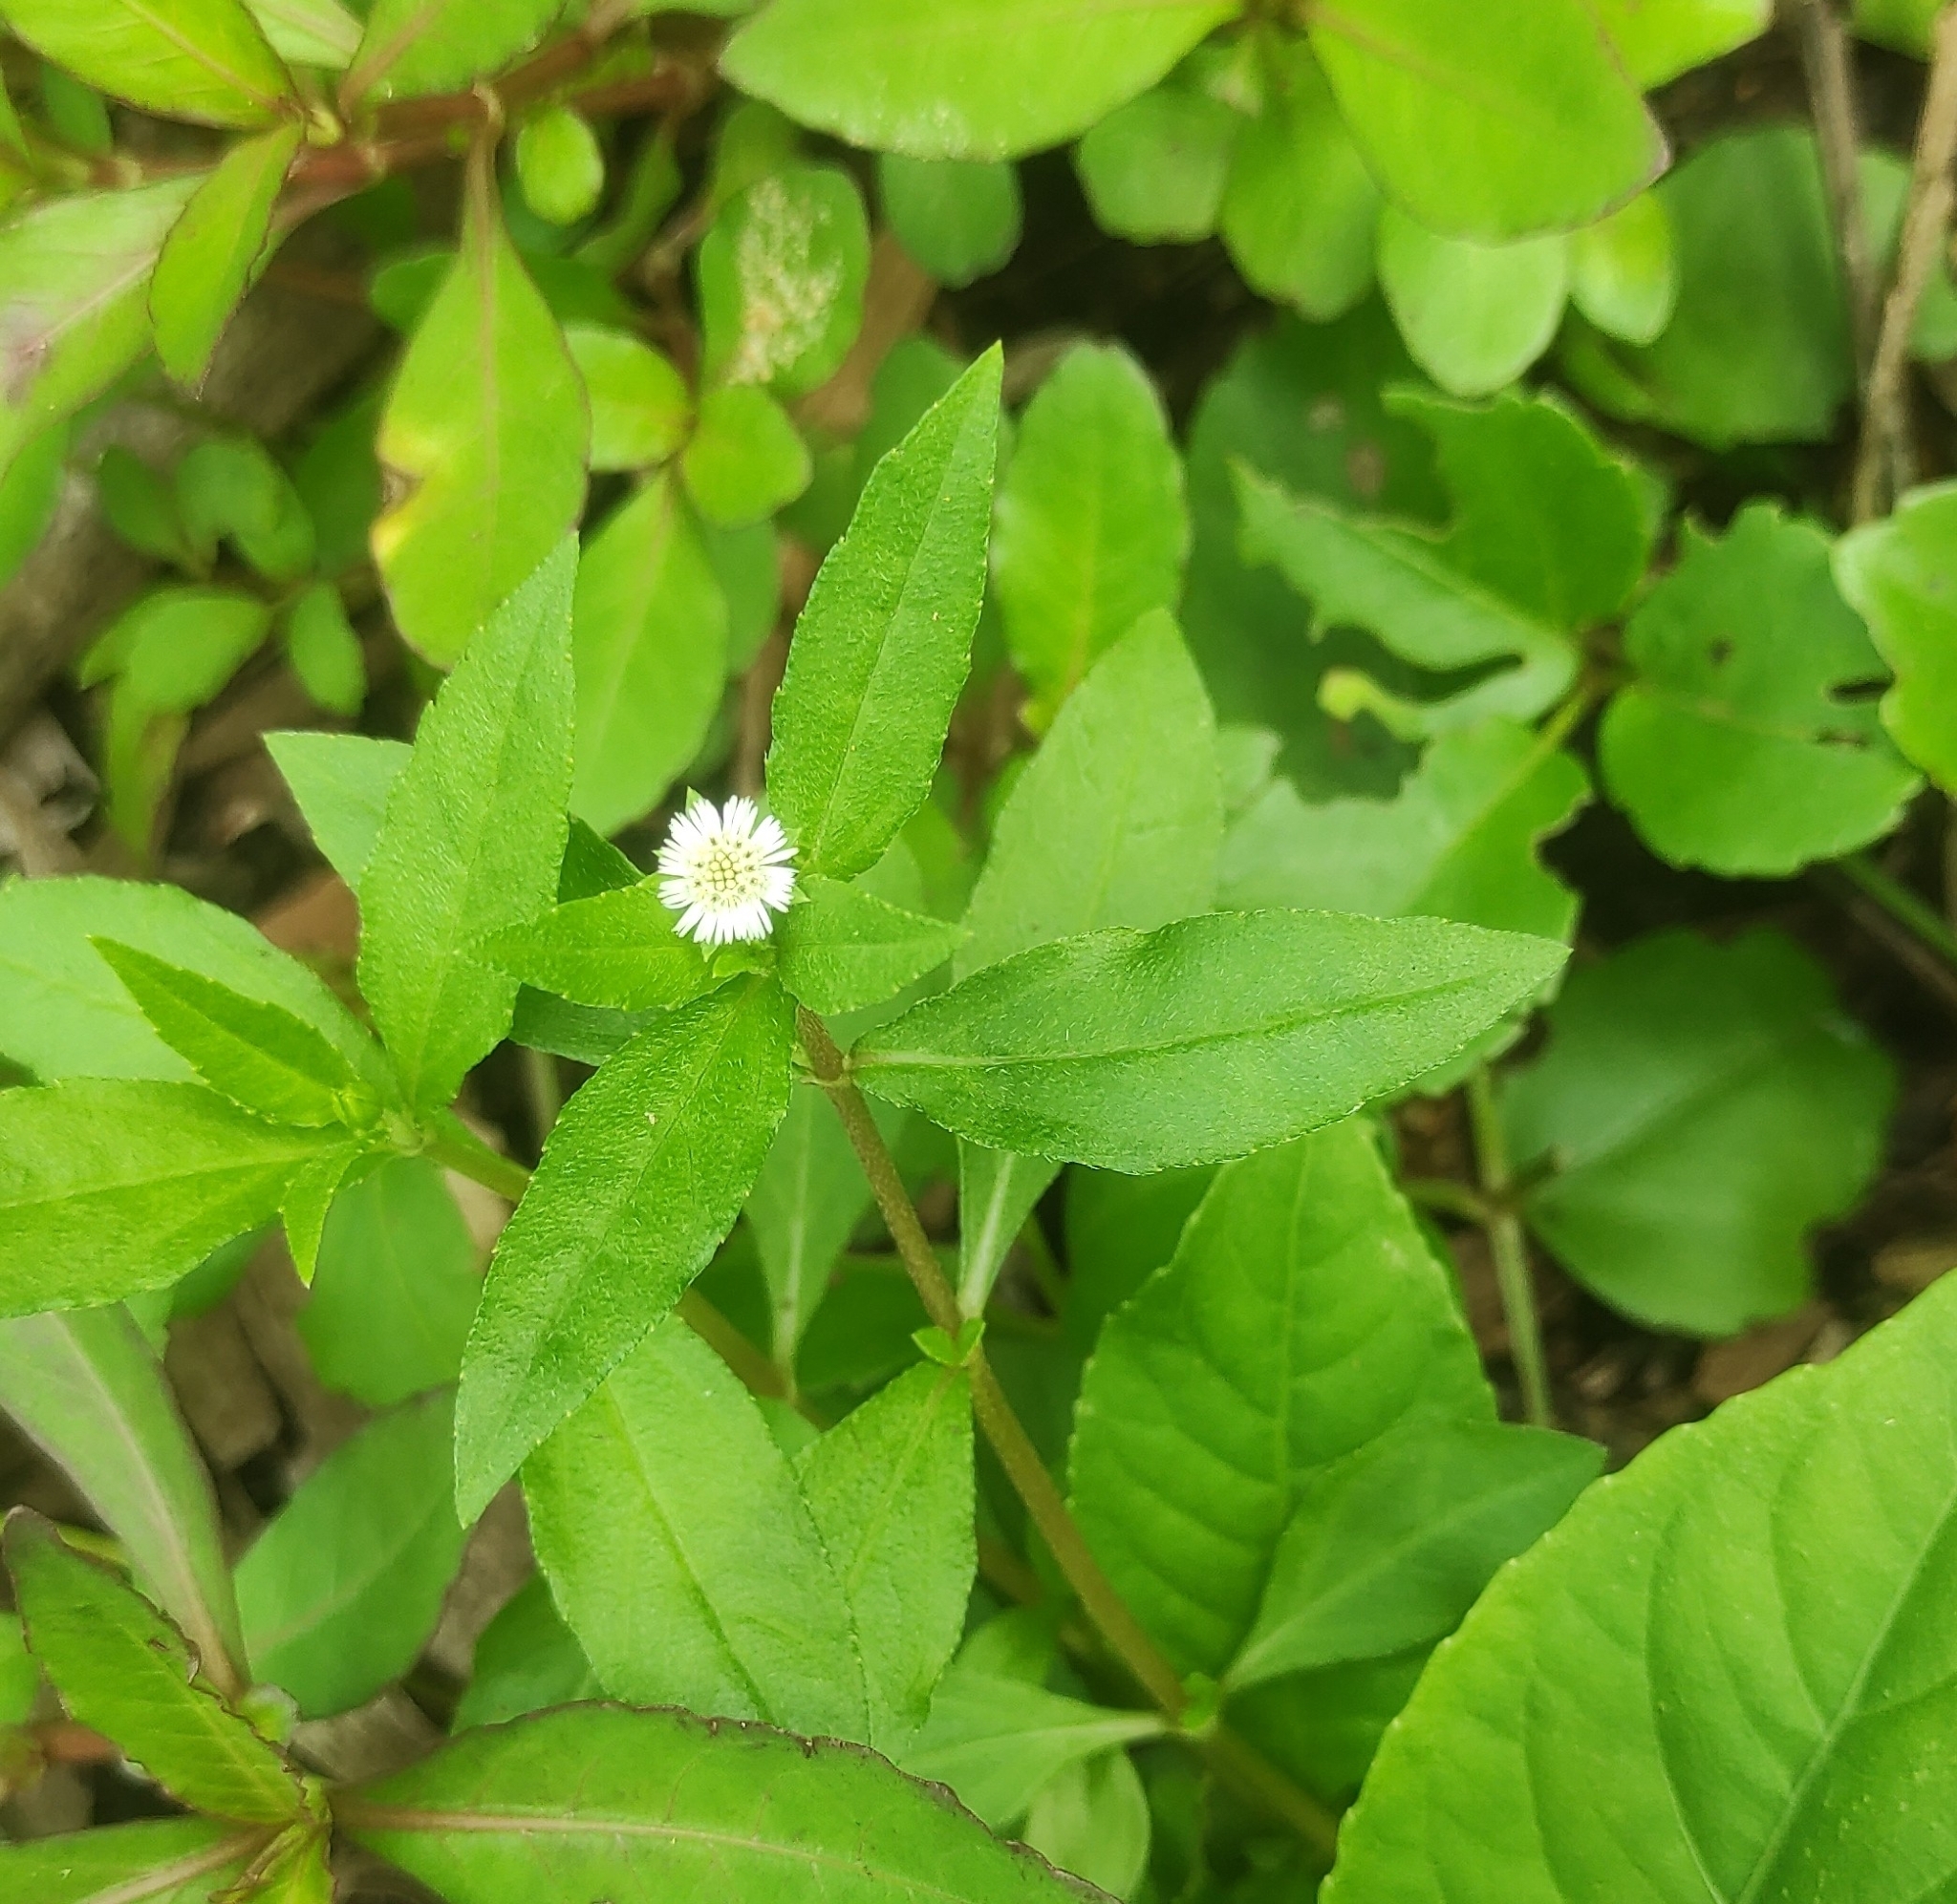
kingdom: Plantae
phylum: Tracheophyta
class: Magnoliopsida
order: Asterales
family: Asteraceae
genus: Eclipta
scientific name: Eclipta prostrata
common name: False daisy
